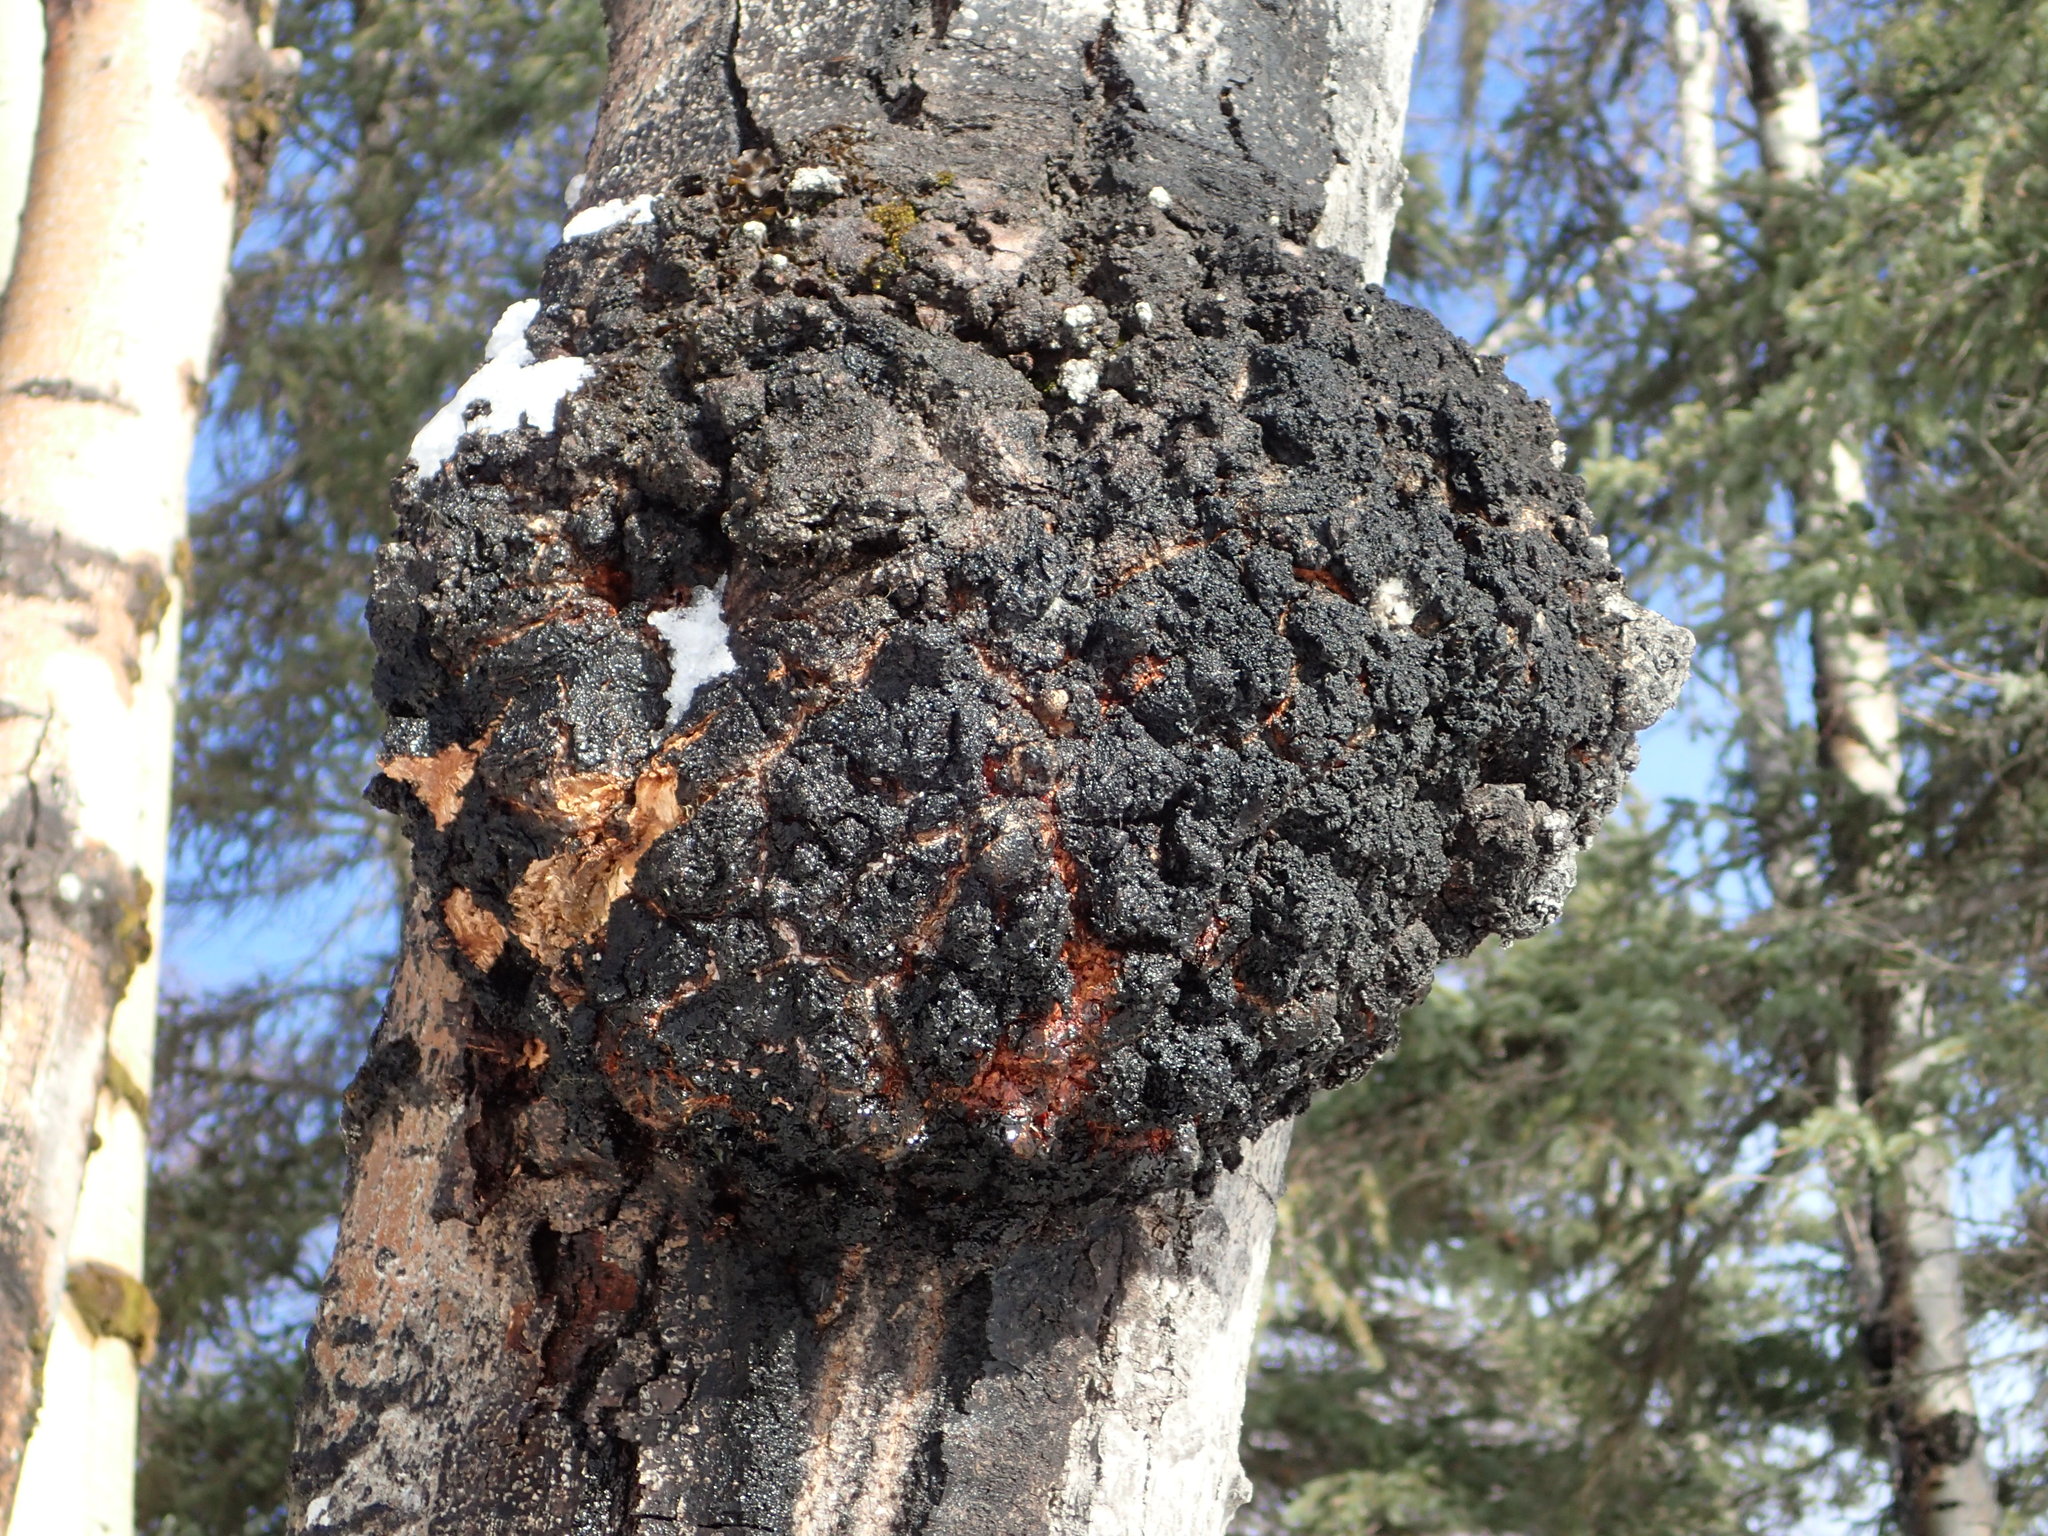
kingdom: Fungi
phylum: Ascomycota
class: Dothideomycetes
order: Botryosphaeriales
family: Botryosphaeriaceae
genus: Diplodia
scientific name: Diplodia tumefaciens
